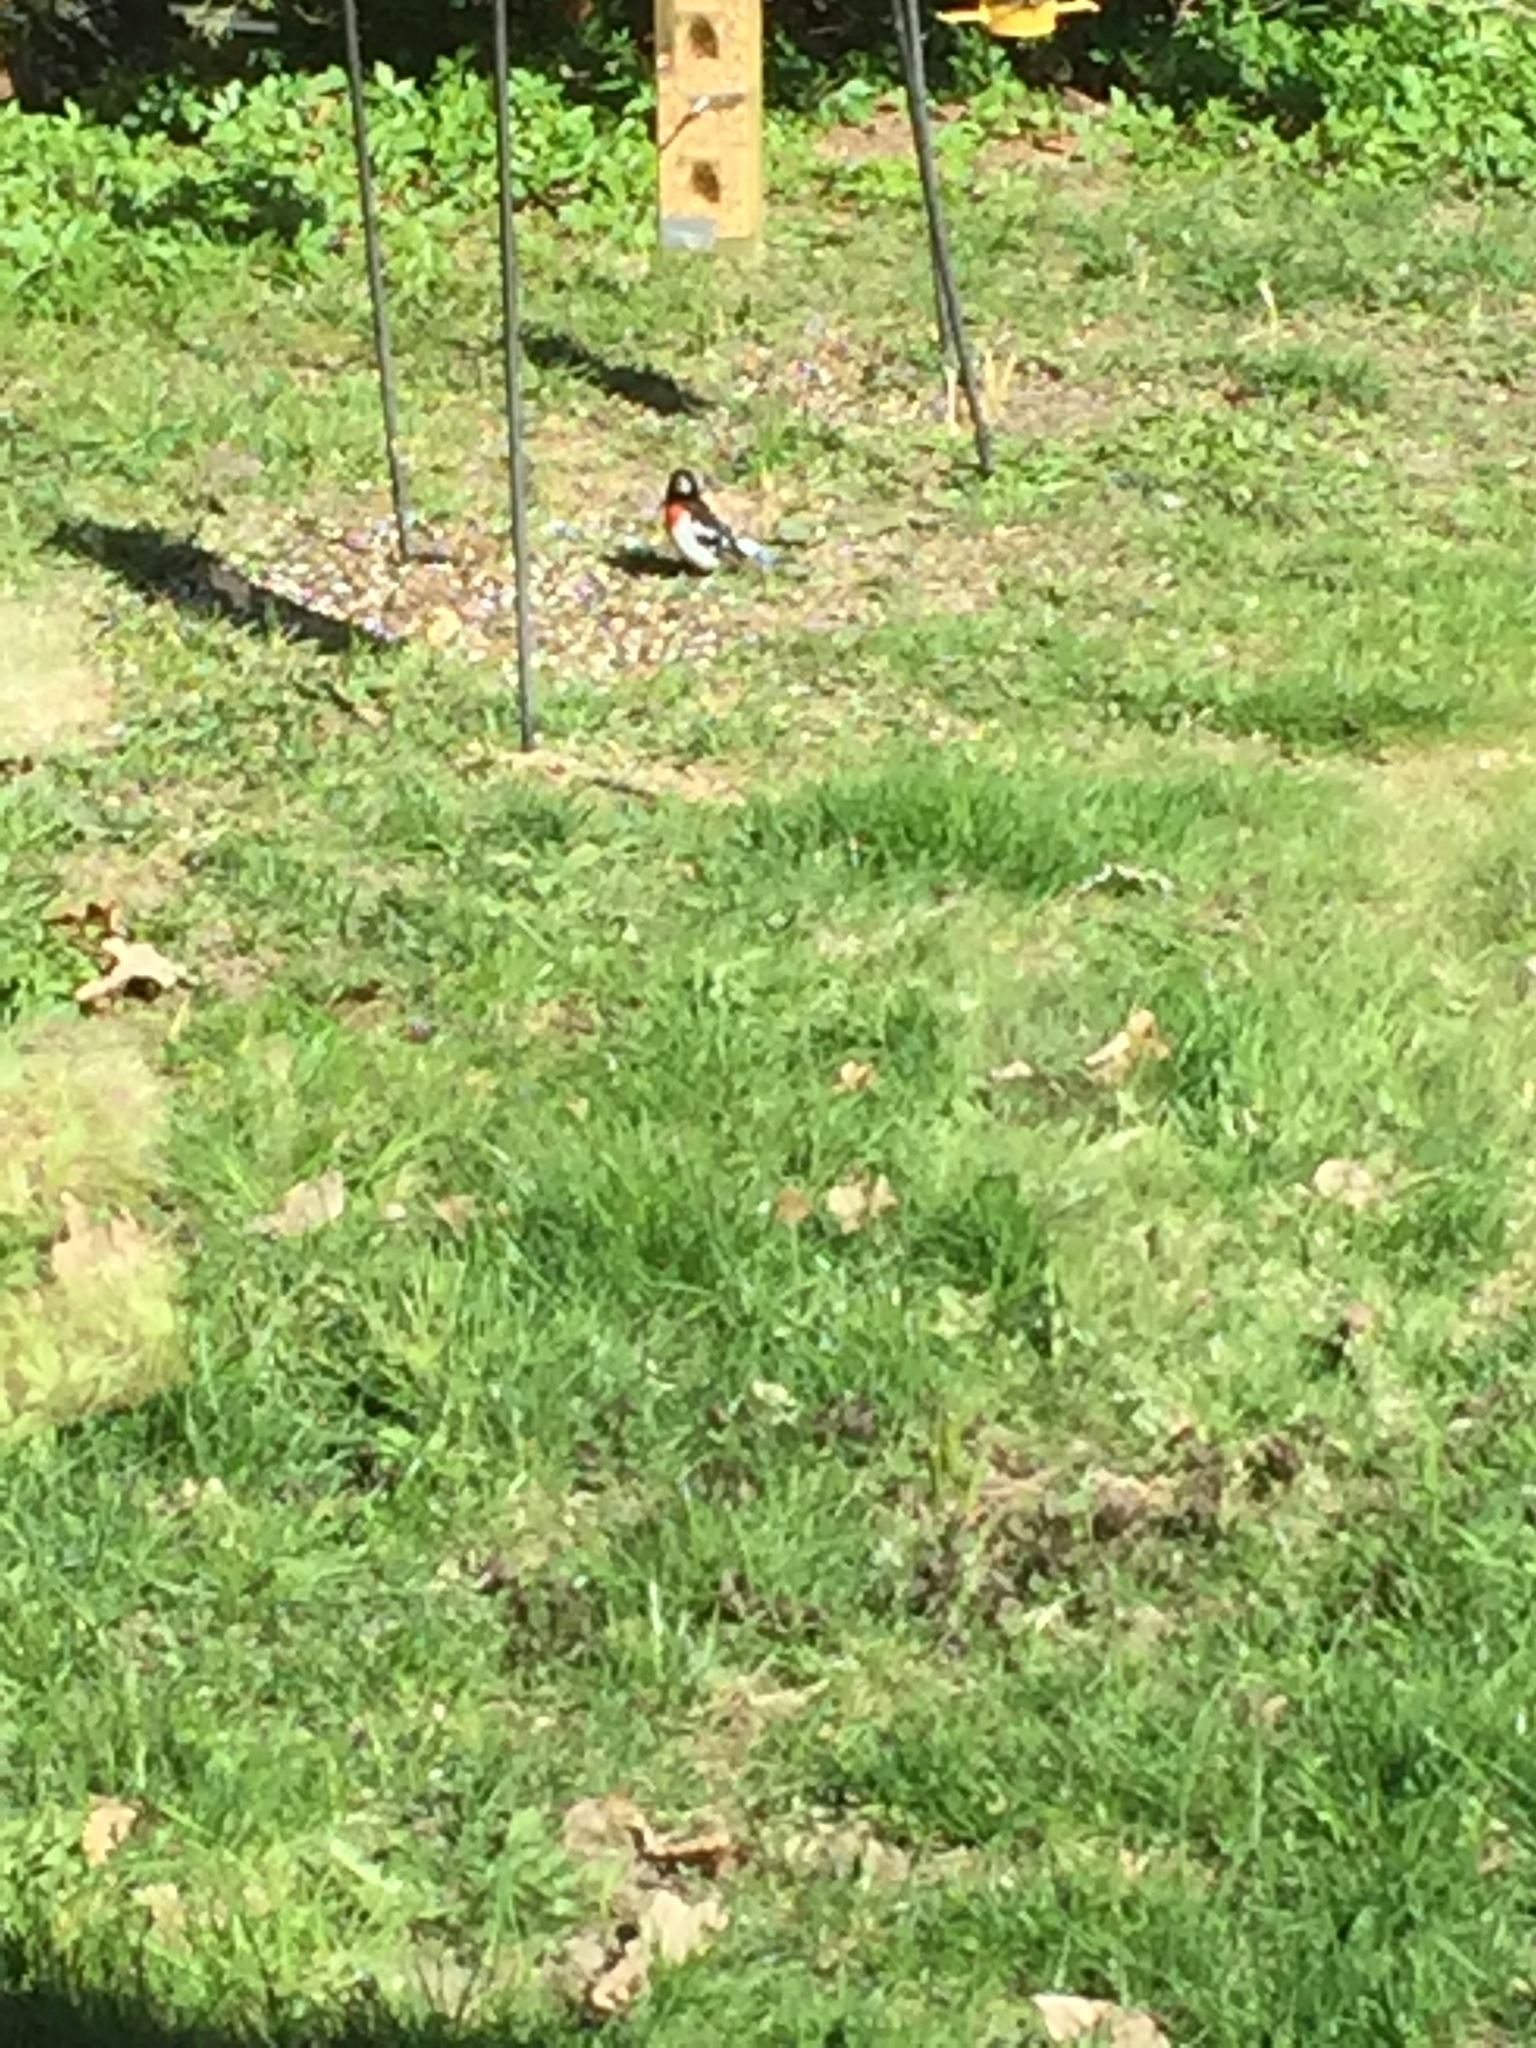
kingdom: Animalia
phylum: Chordata
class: Aves
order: Passeriformes
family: Cardinalidae
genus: Pheucticus
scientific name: Pheucticus ludovicianus
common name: Rose-breasted grosbeak
